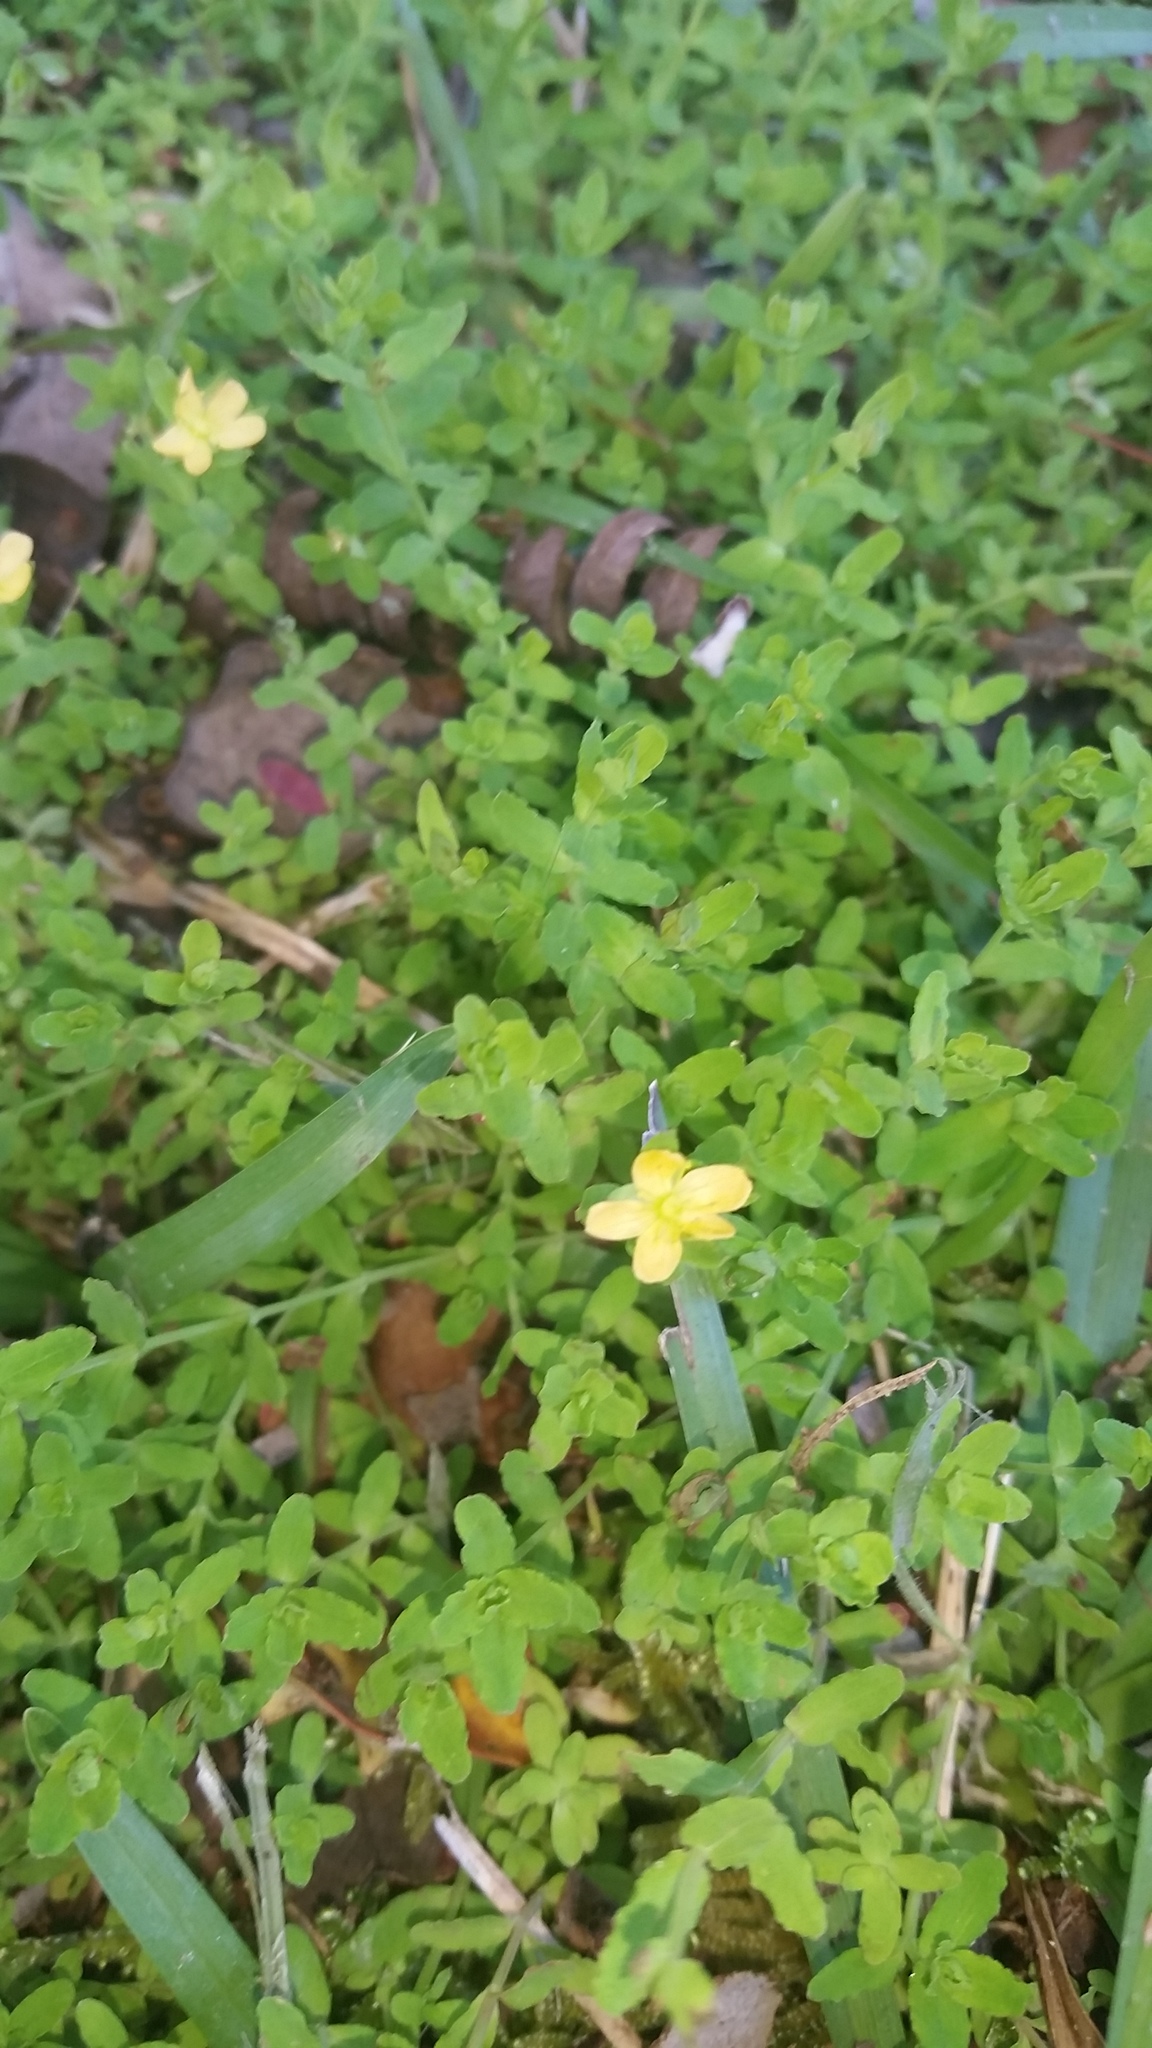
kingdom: Plantae
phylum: Tracheophyta
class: Magnoliopsida
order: Malpighiales
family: Hypericaceae
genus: Hypericum
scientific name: Hypericum parvulum
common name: Sierra madre st. johnswort
